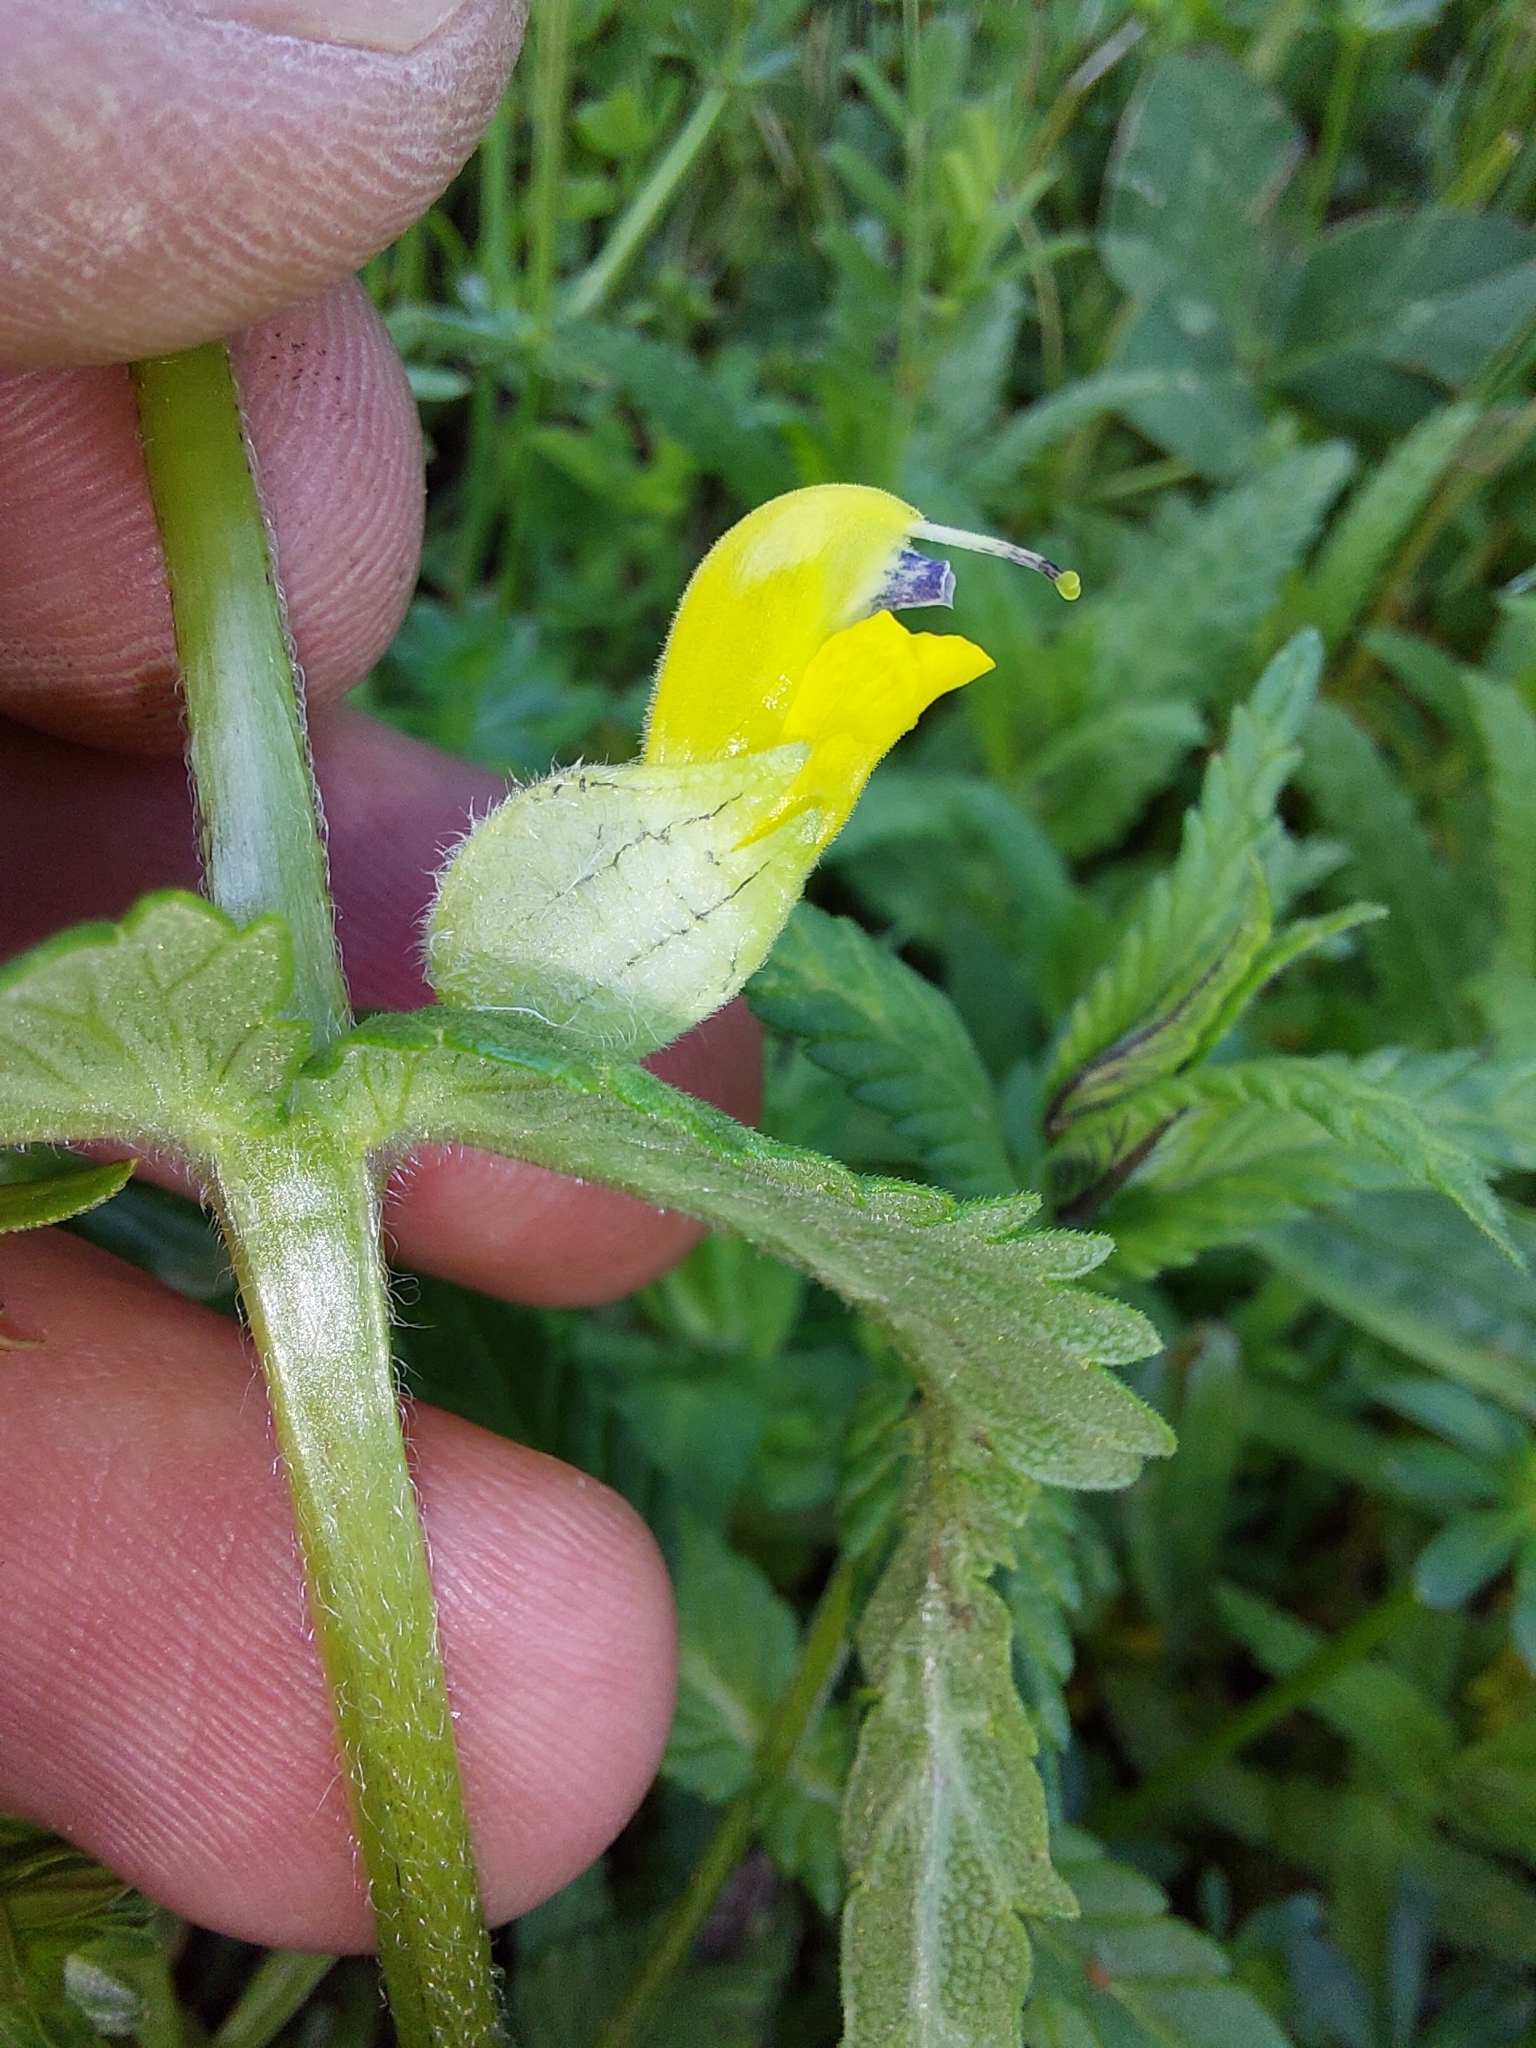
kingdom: Plantae
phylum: Tracheophyta
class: Magnoliopsida
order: Lamiales
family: Orobanchaceae
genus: Rhinanthus
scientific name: Rhinanthus alectorolophus
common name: Greater yellow-rattle
